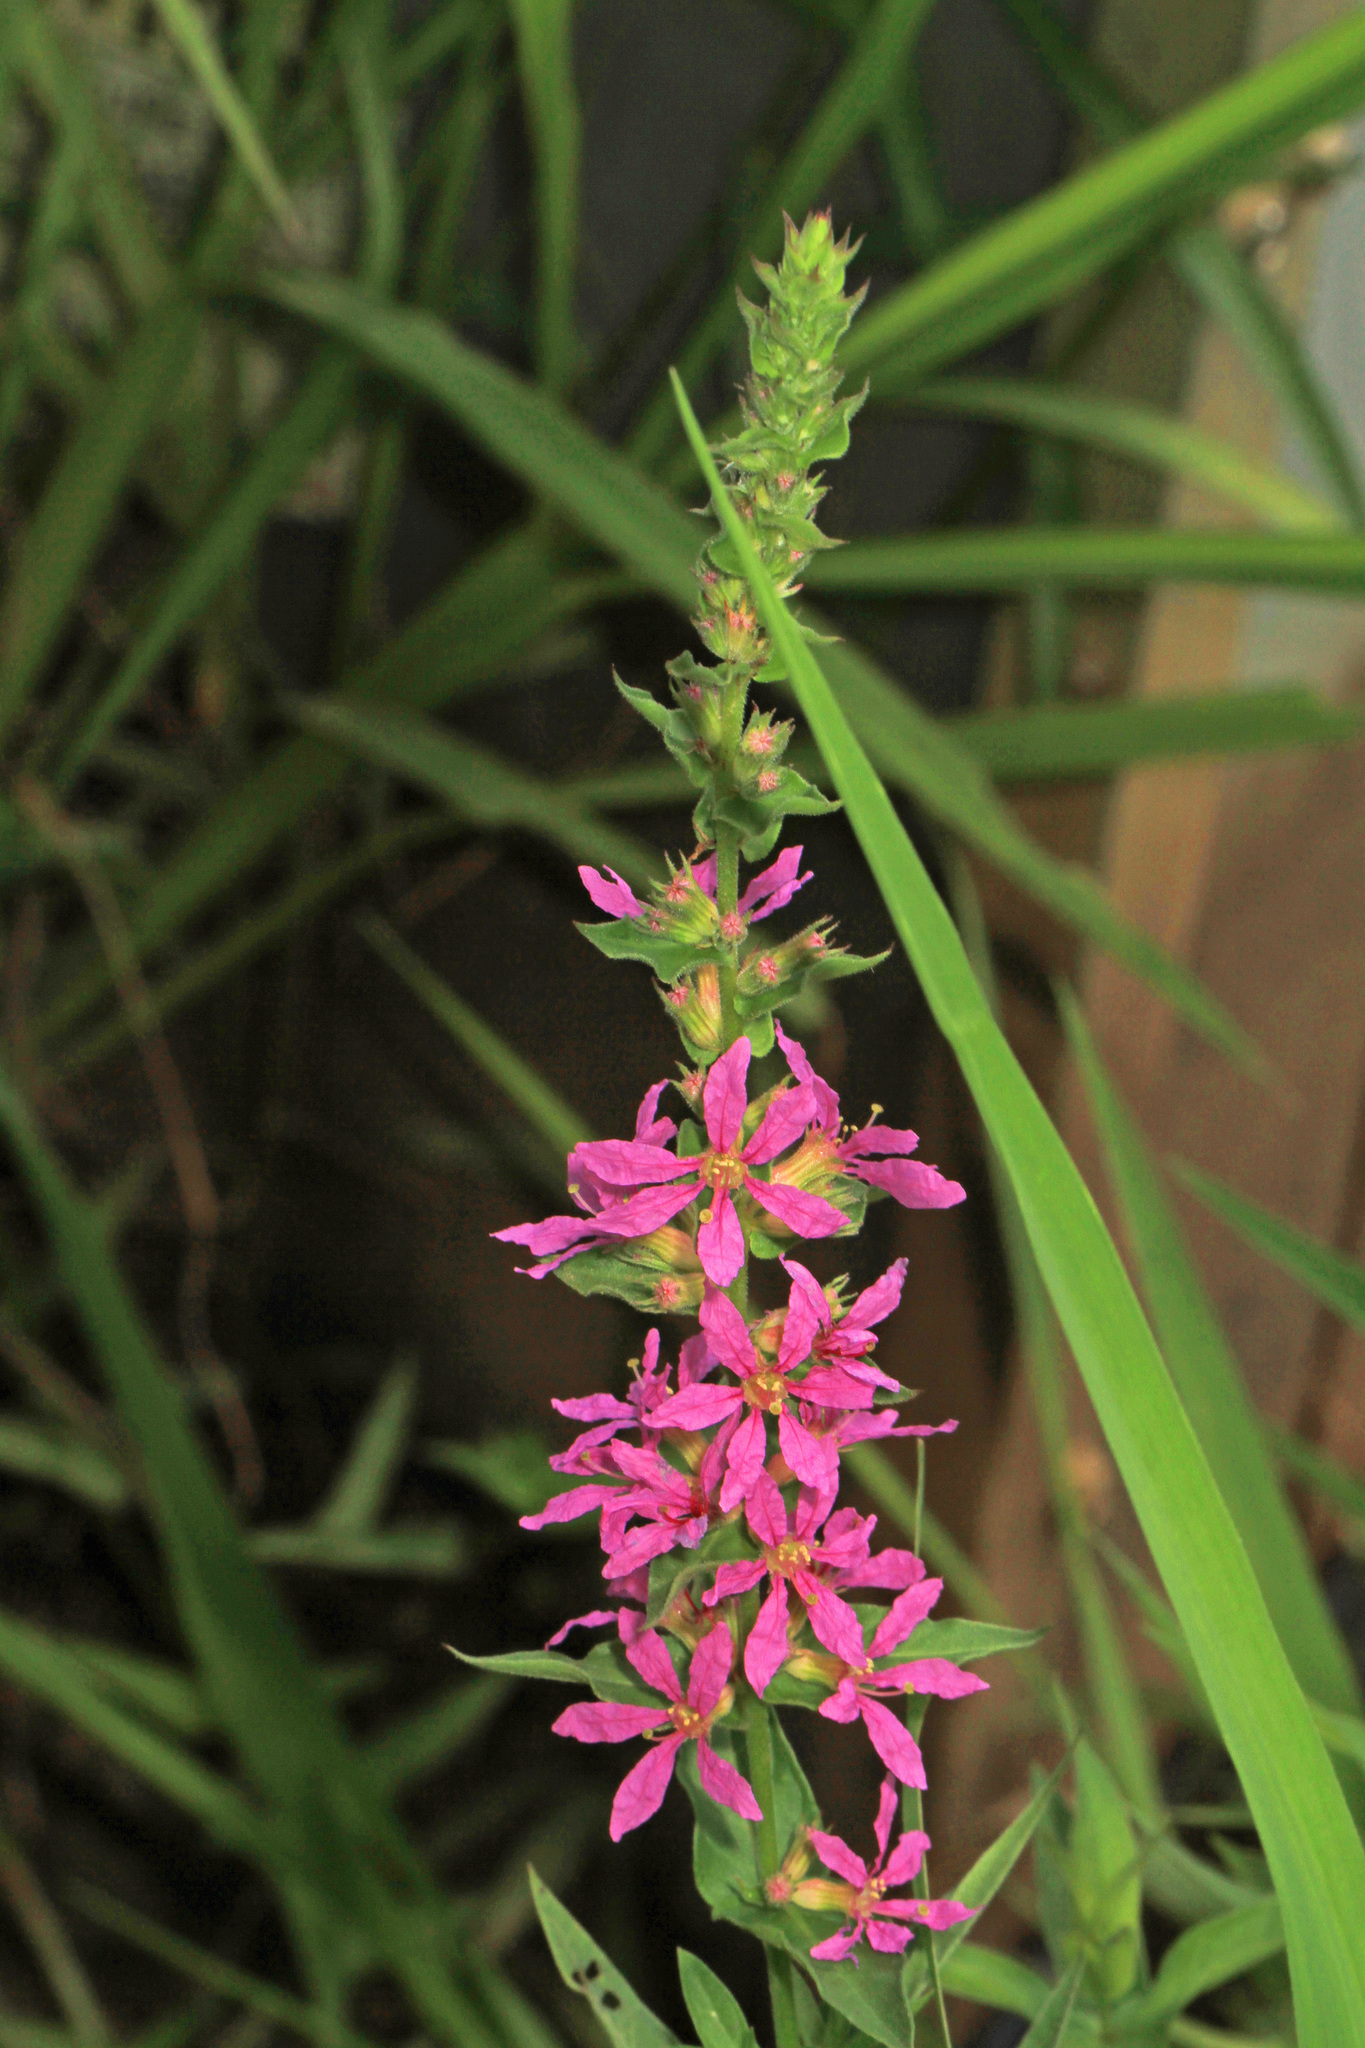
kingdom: Plantae
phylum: Tracheophyta
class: Magnoliopsida
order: Myrtales
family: Lythraceae
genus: Lythrum
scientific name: Lythrum salicaria
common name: Purple loosestrife
